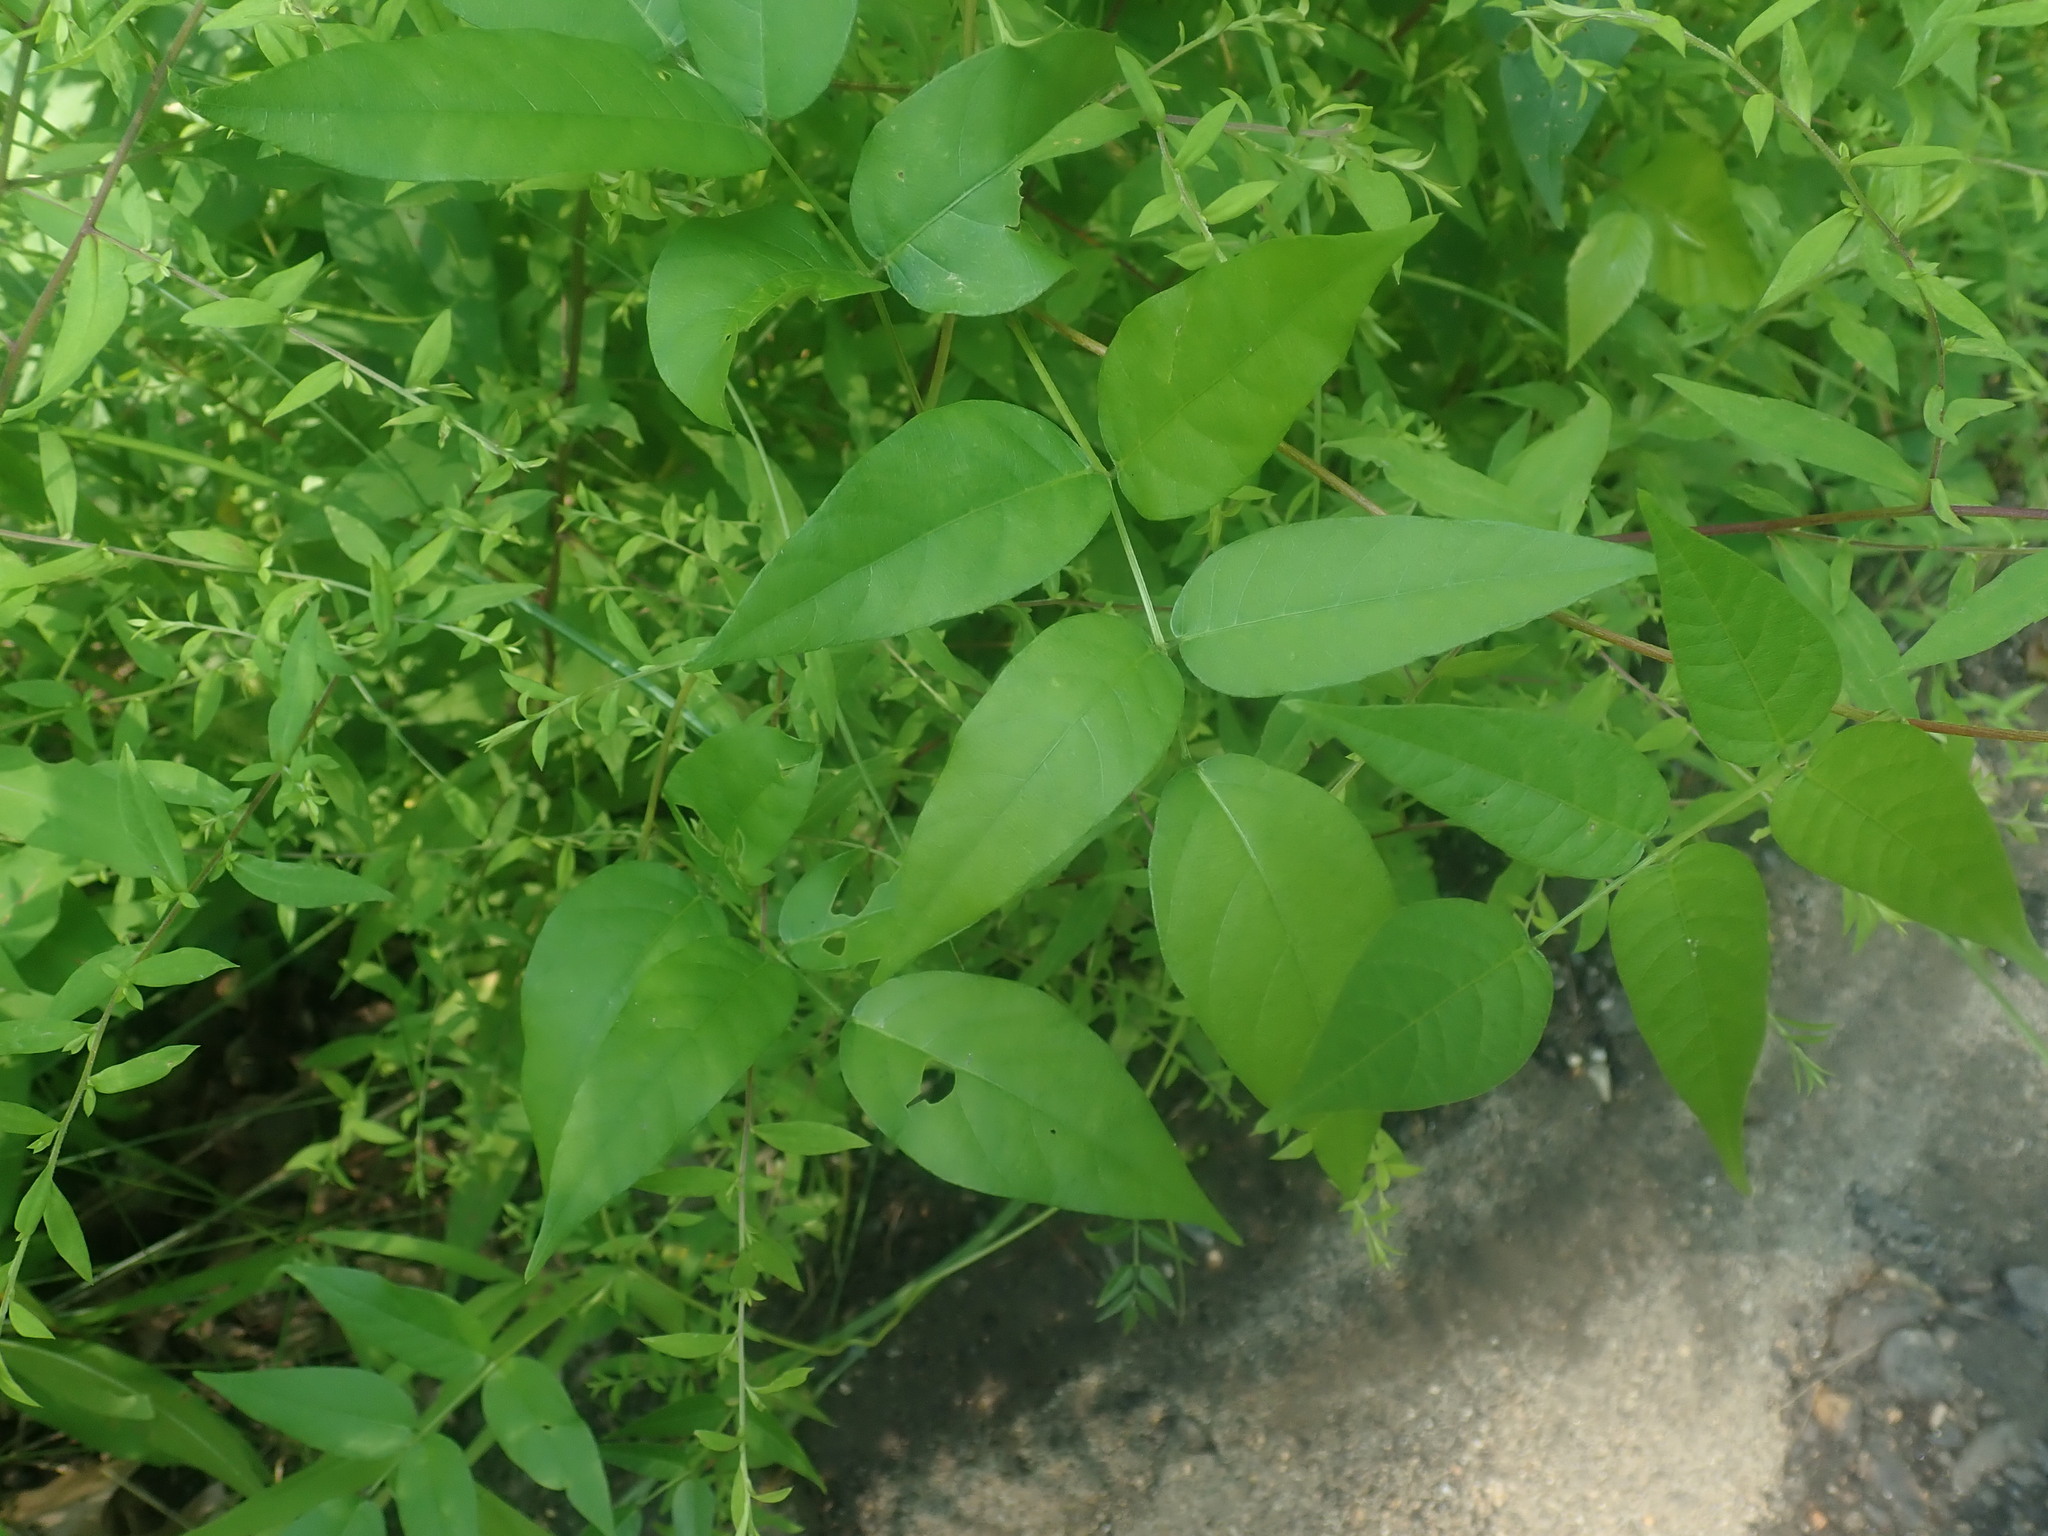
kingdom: Plantae
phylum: Tracheophyta
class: Magnoliopsida
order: Fabales
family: Fabaceae
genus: Apios
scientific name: Apios americana
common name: American potato-bean
